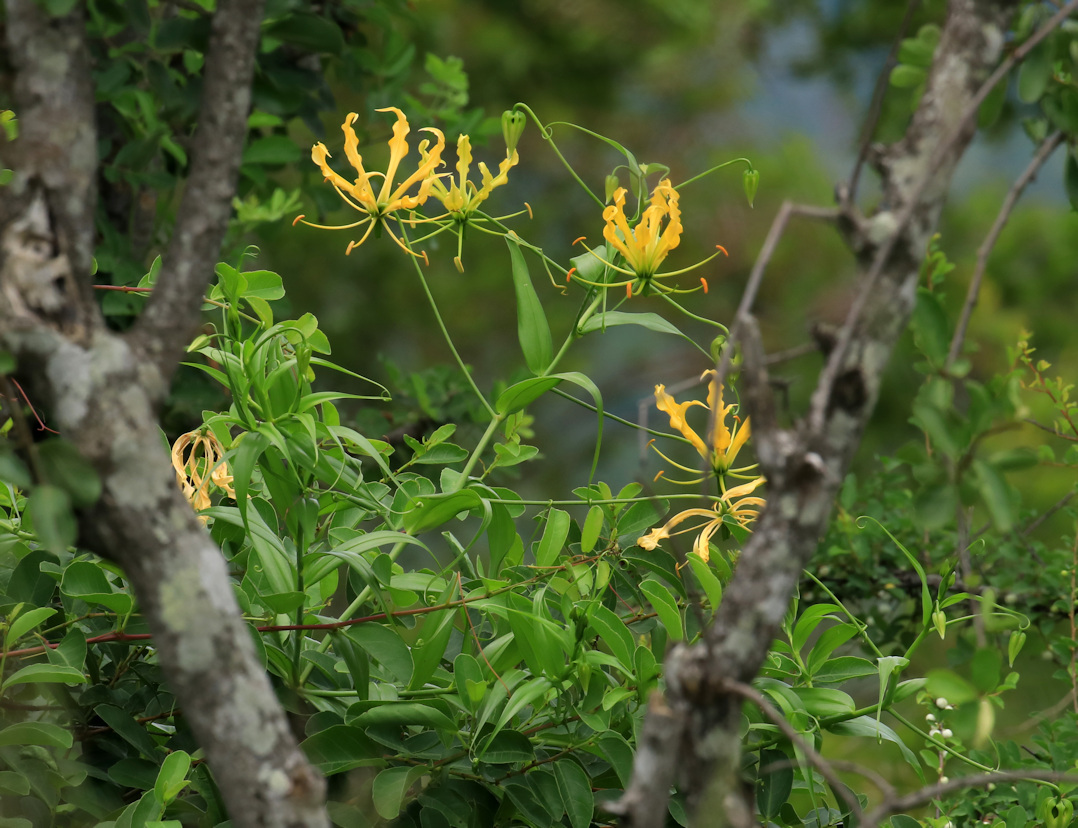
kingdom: Plantae
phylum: Tracheophyta
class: Liliopsida
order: Liliales
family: Colchicaceae
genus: Gloriosa
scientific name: Gloriosa superba
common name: Flame lily
